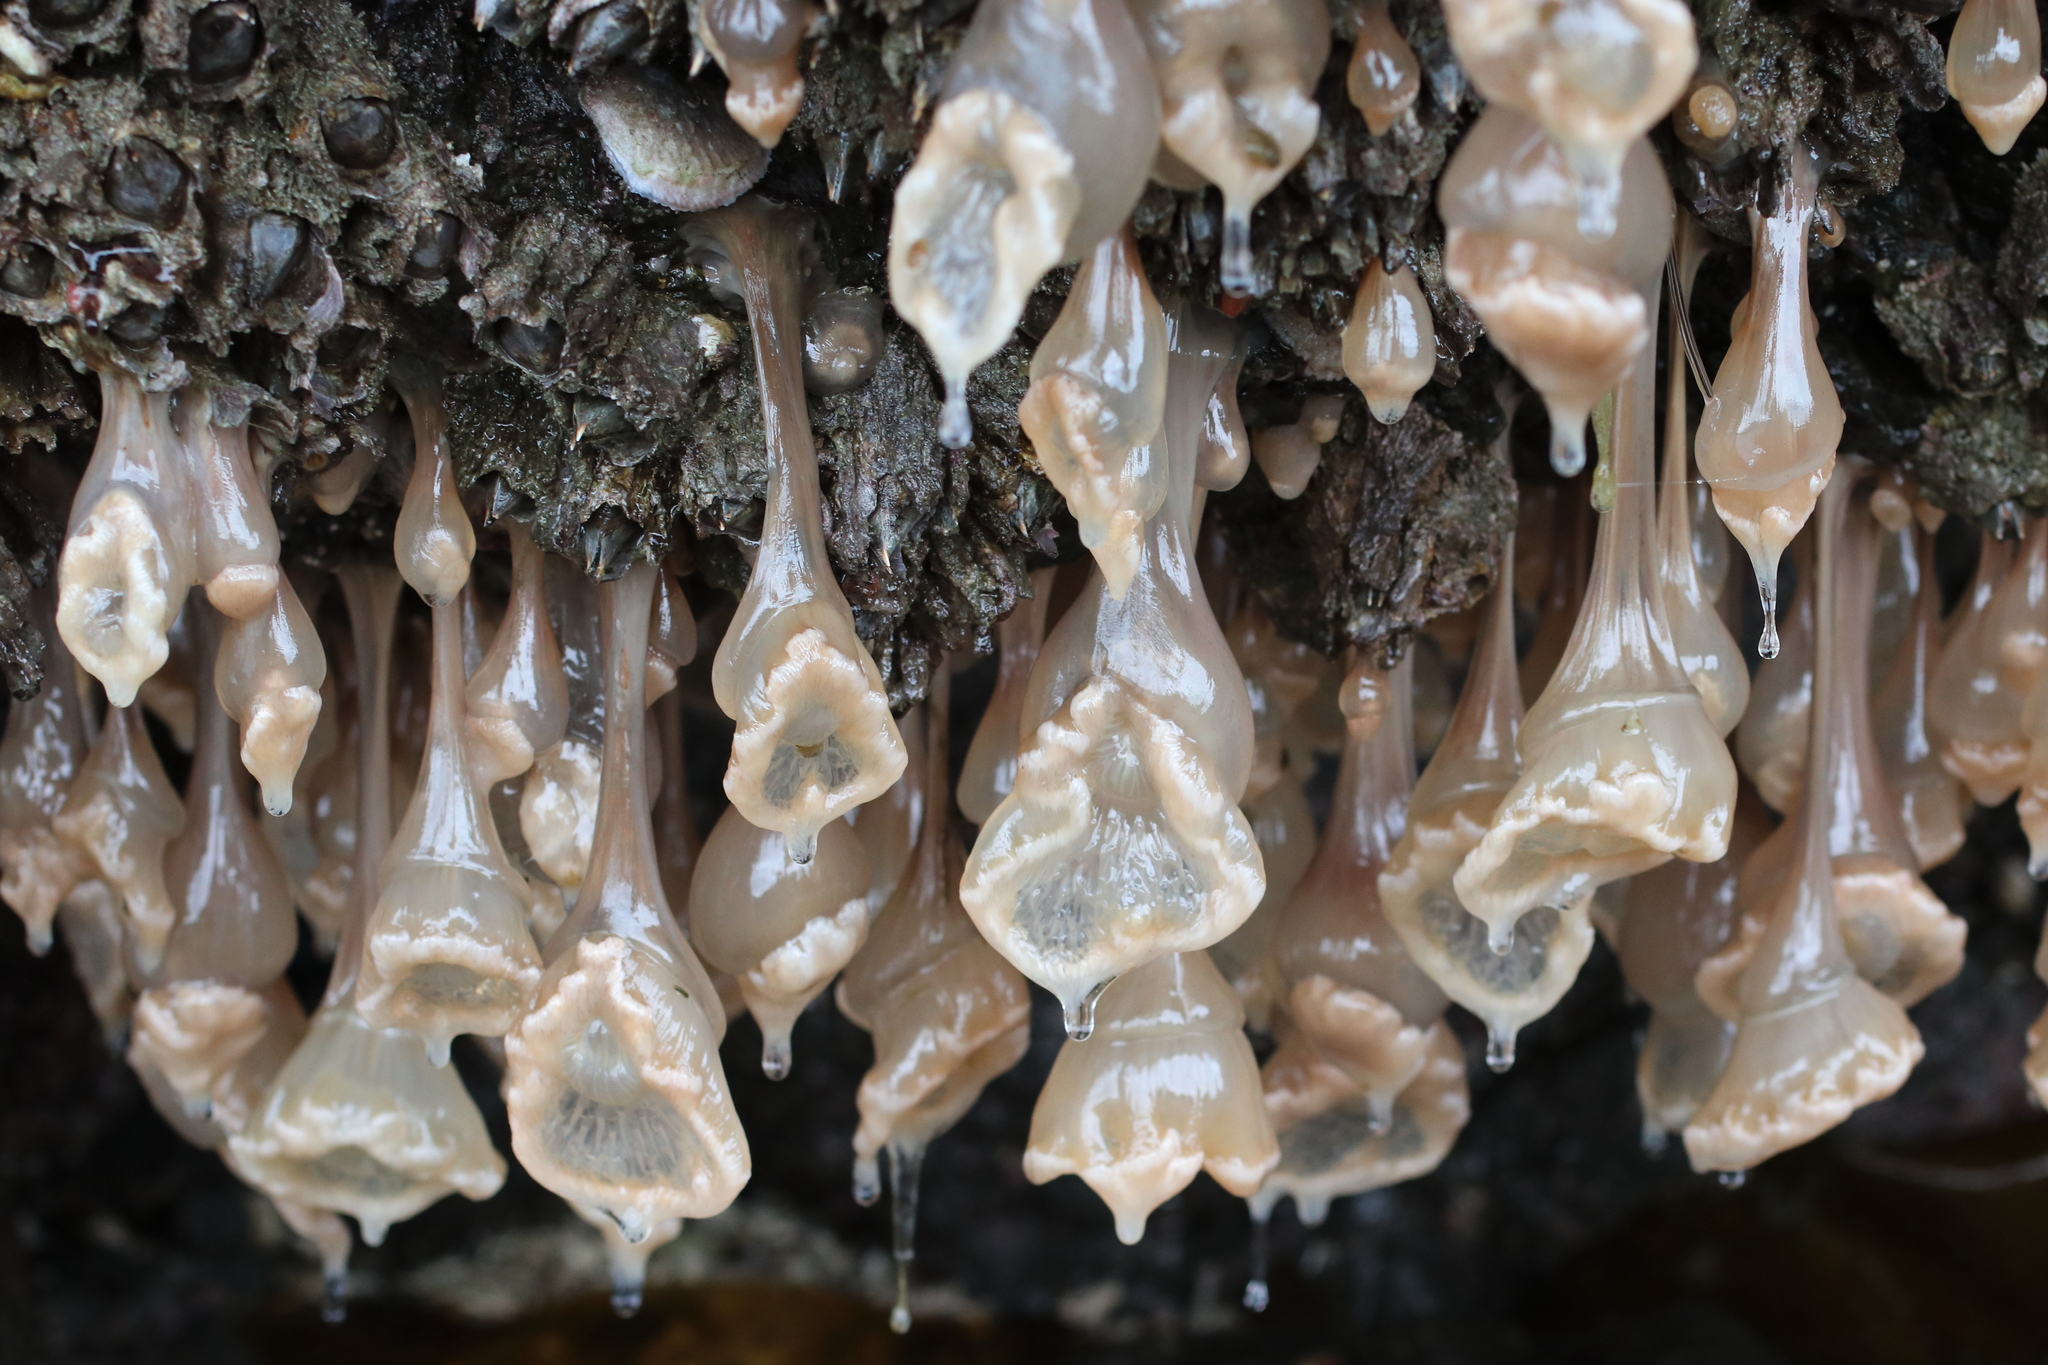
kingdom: Animalia
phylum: Cnidaria
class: Anthozoa
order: Actiniaria
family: Metridiidae
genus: Metridium
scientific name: Metridium senile
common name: Clonal plumose anemone
